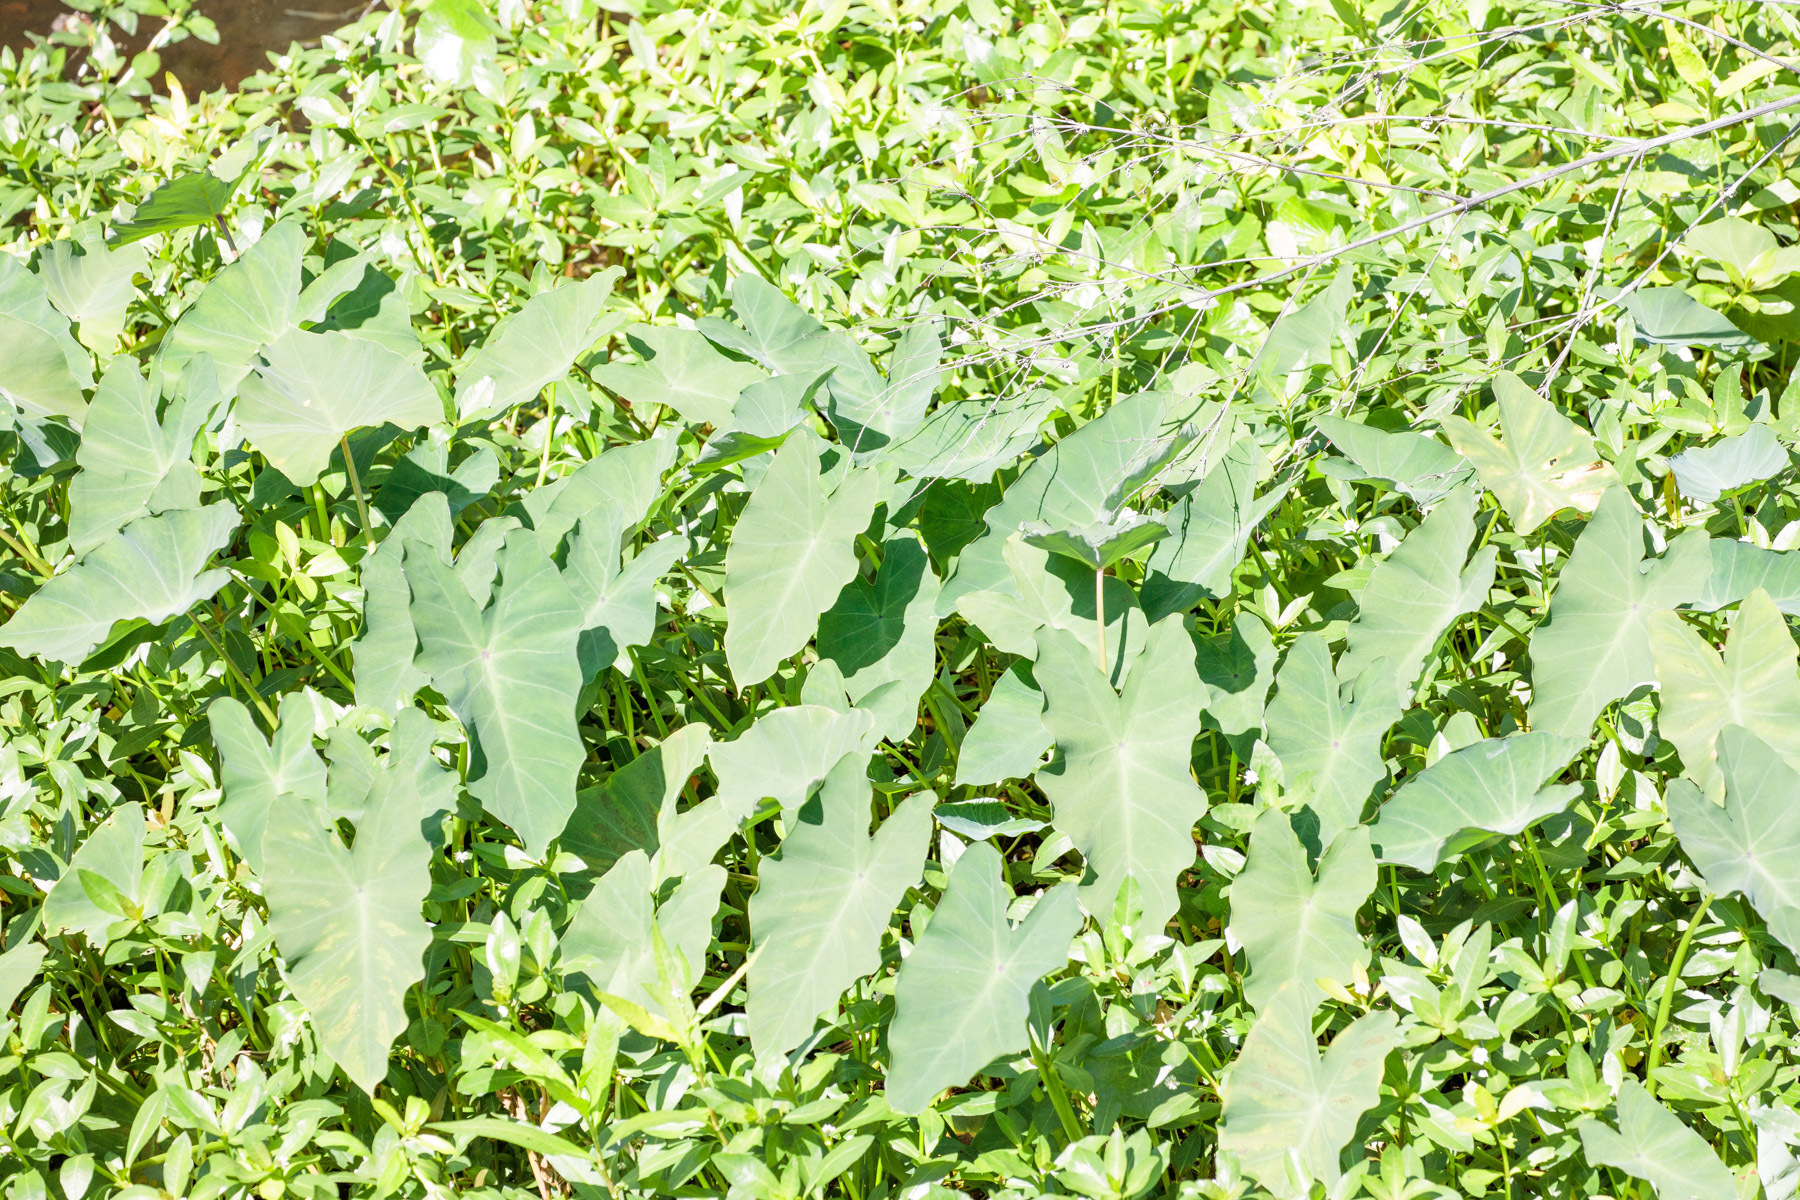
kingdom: Plantae
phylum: Tracheophyta
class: Liliopsida
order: Alismatales
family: Araceae
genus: Colocasia
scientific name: Colocasia esculenta
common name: Taro
